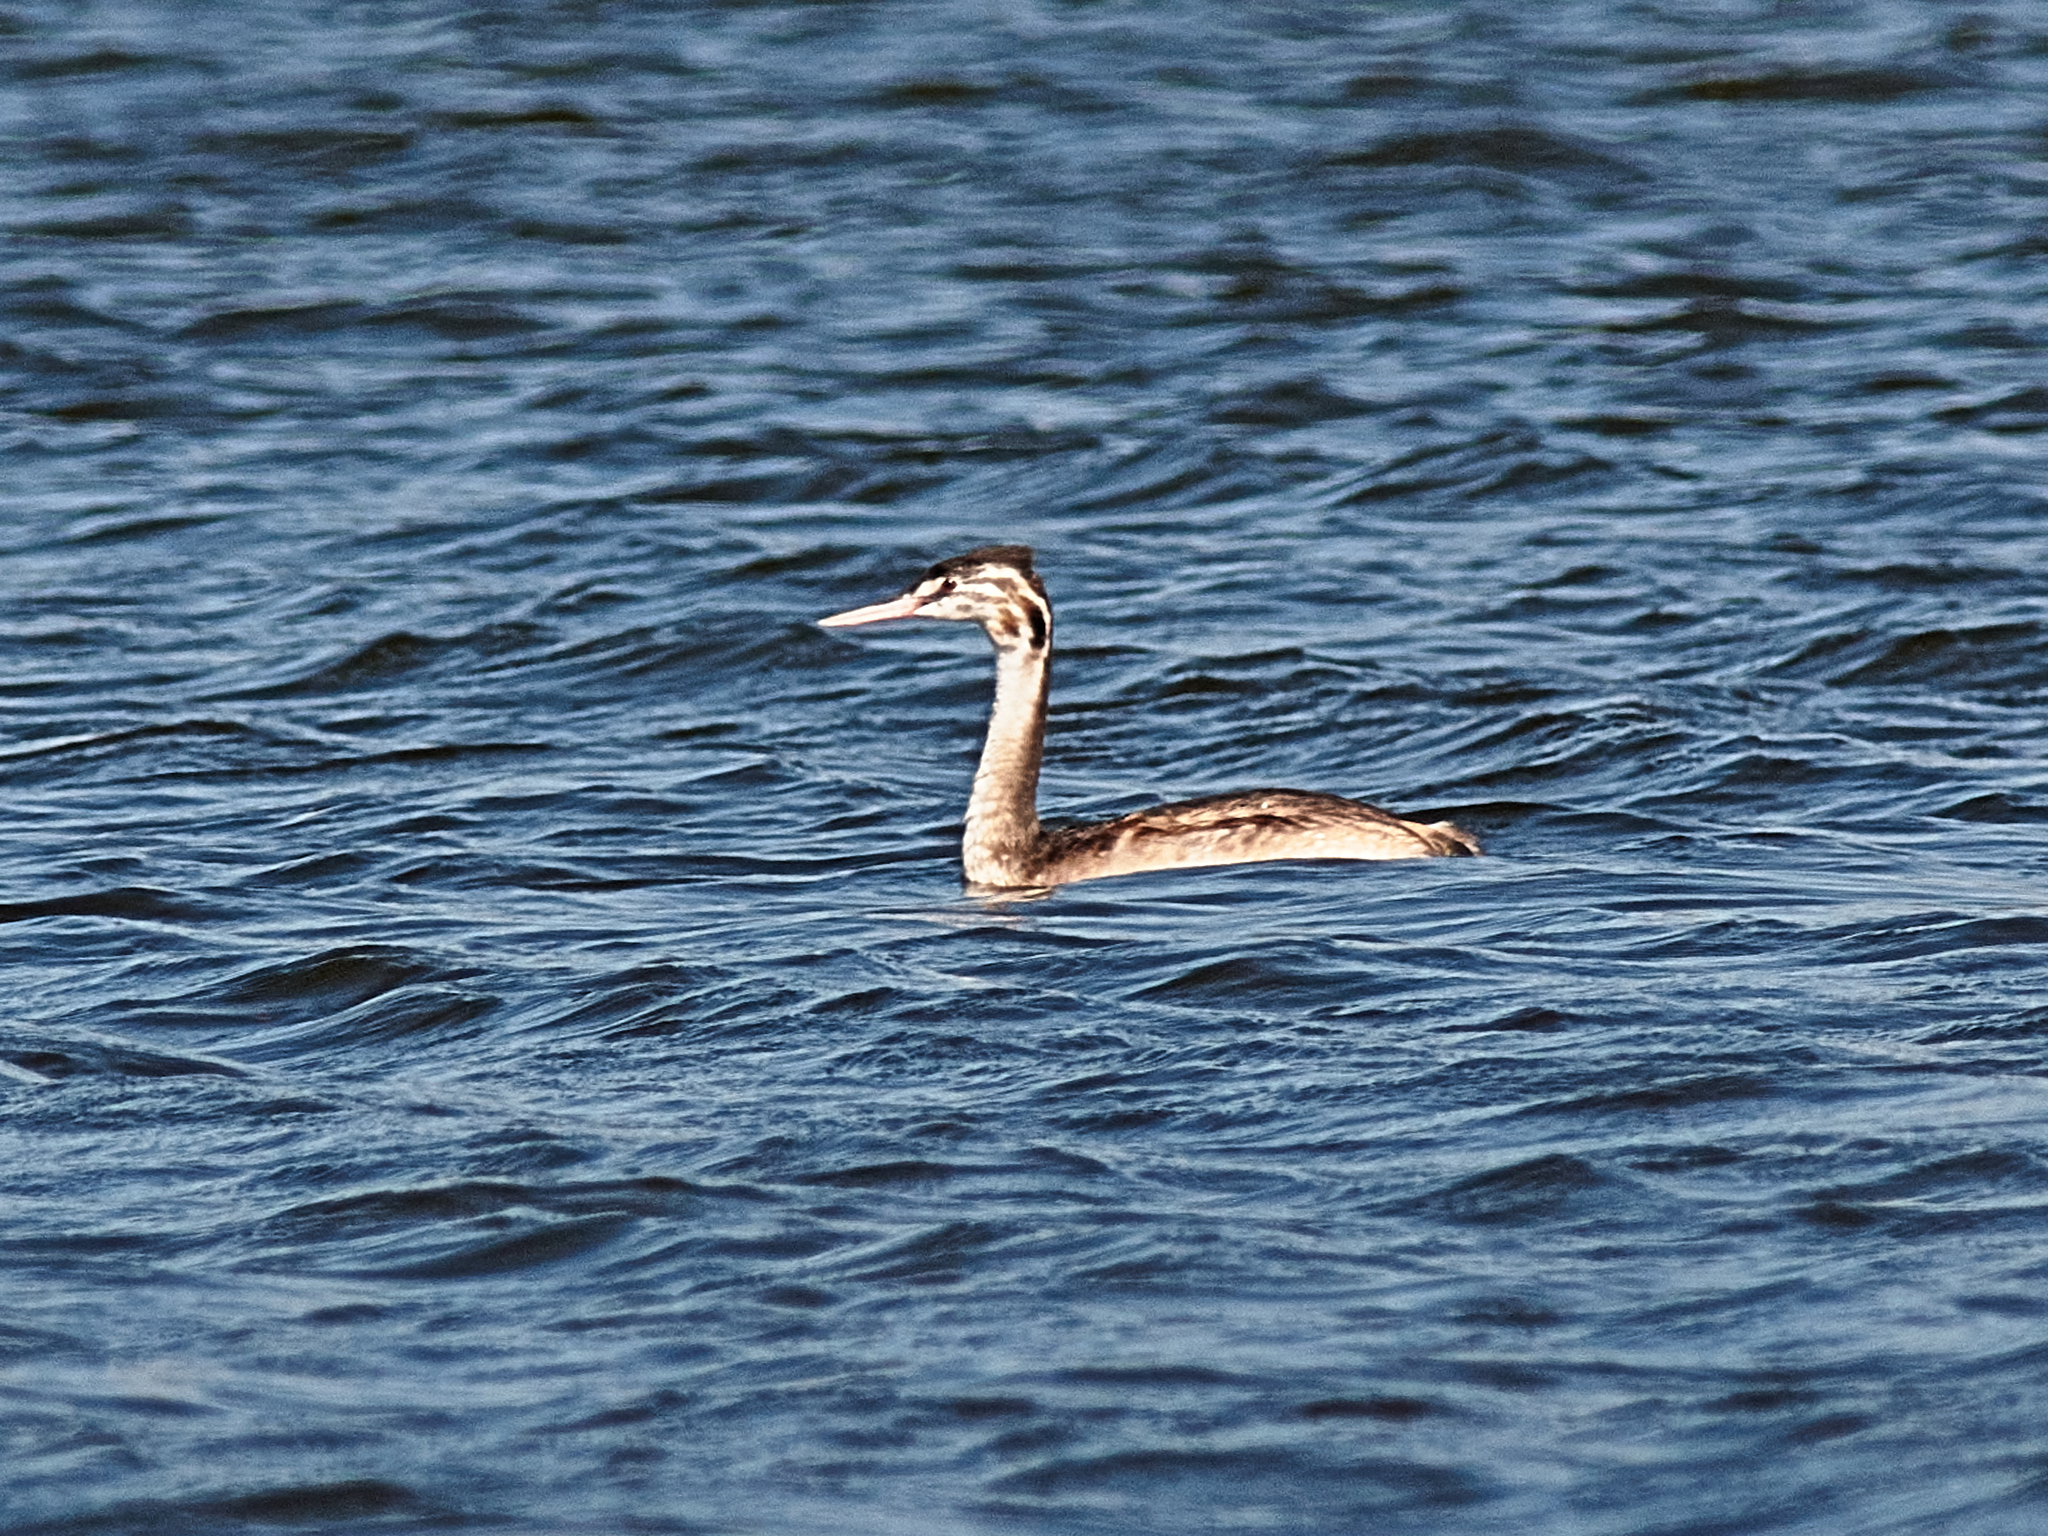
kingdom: Animalia
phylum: Chordata
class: Aves
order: Podicipediformes
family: Podicipedidae
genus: Podiceps
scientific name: Podiceps cristatus
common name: Great crested grebe
